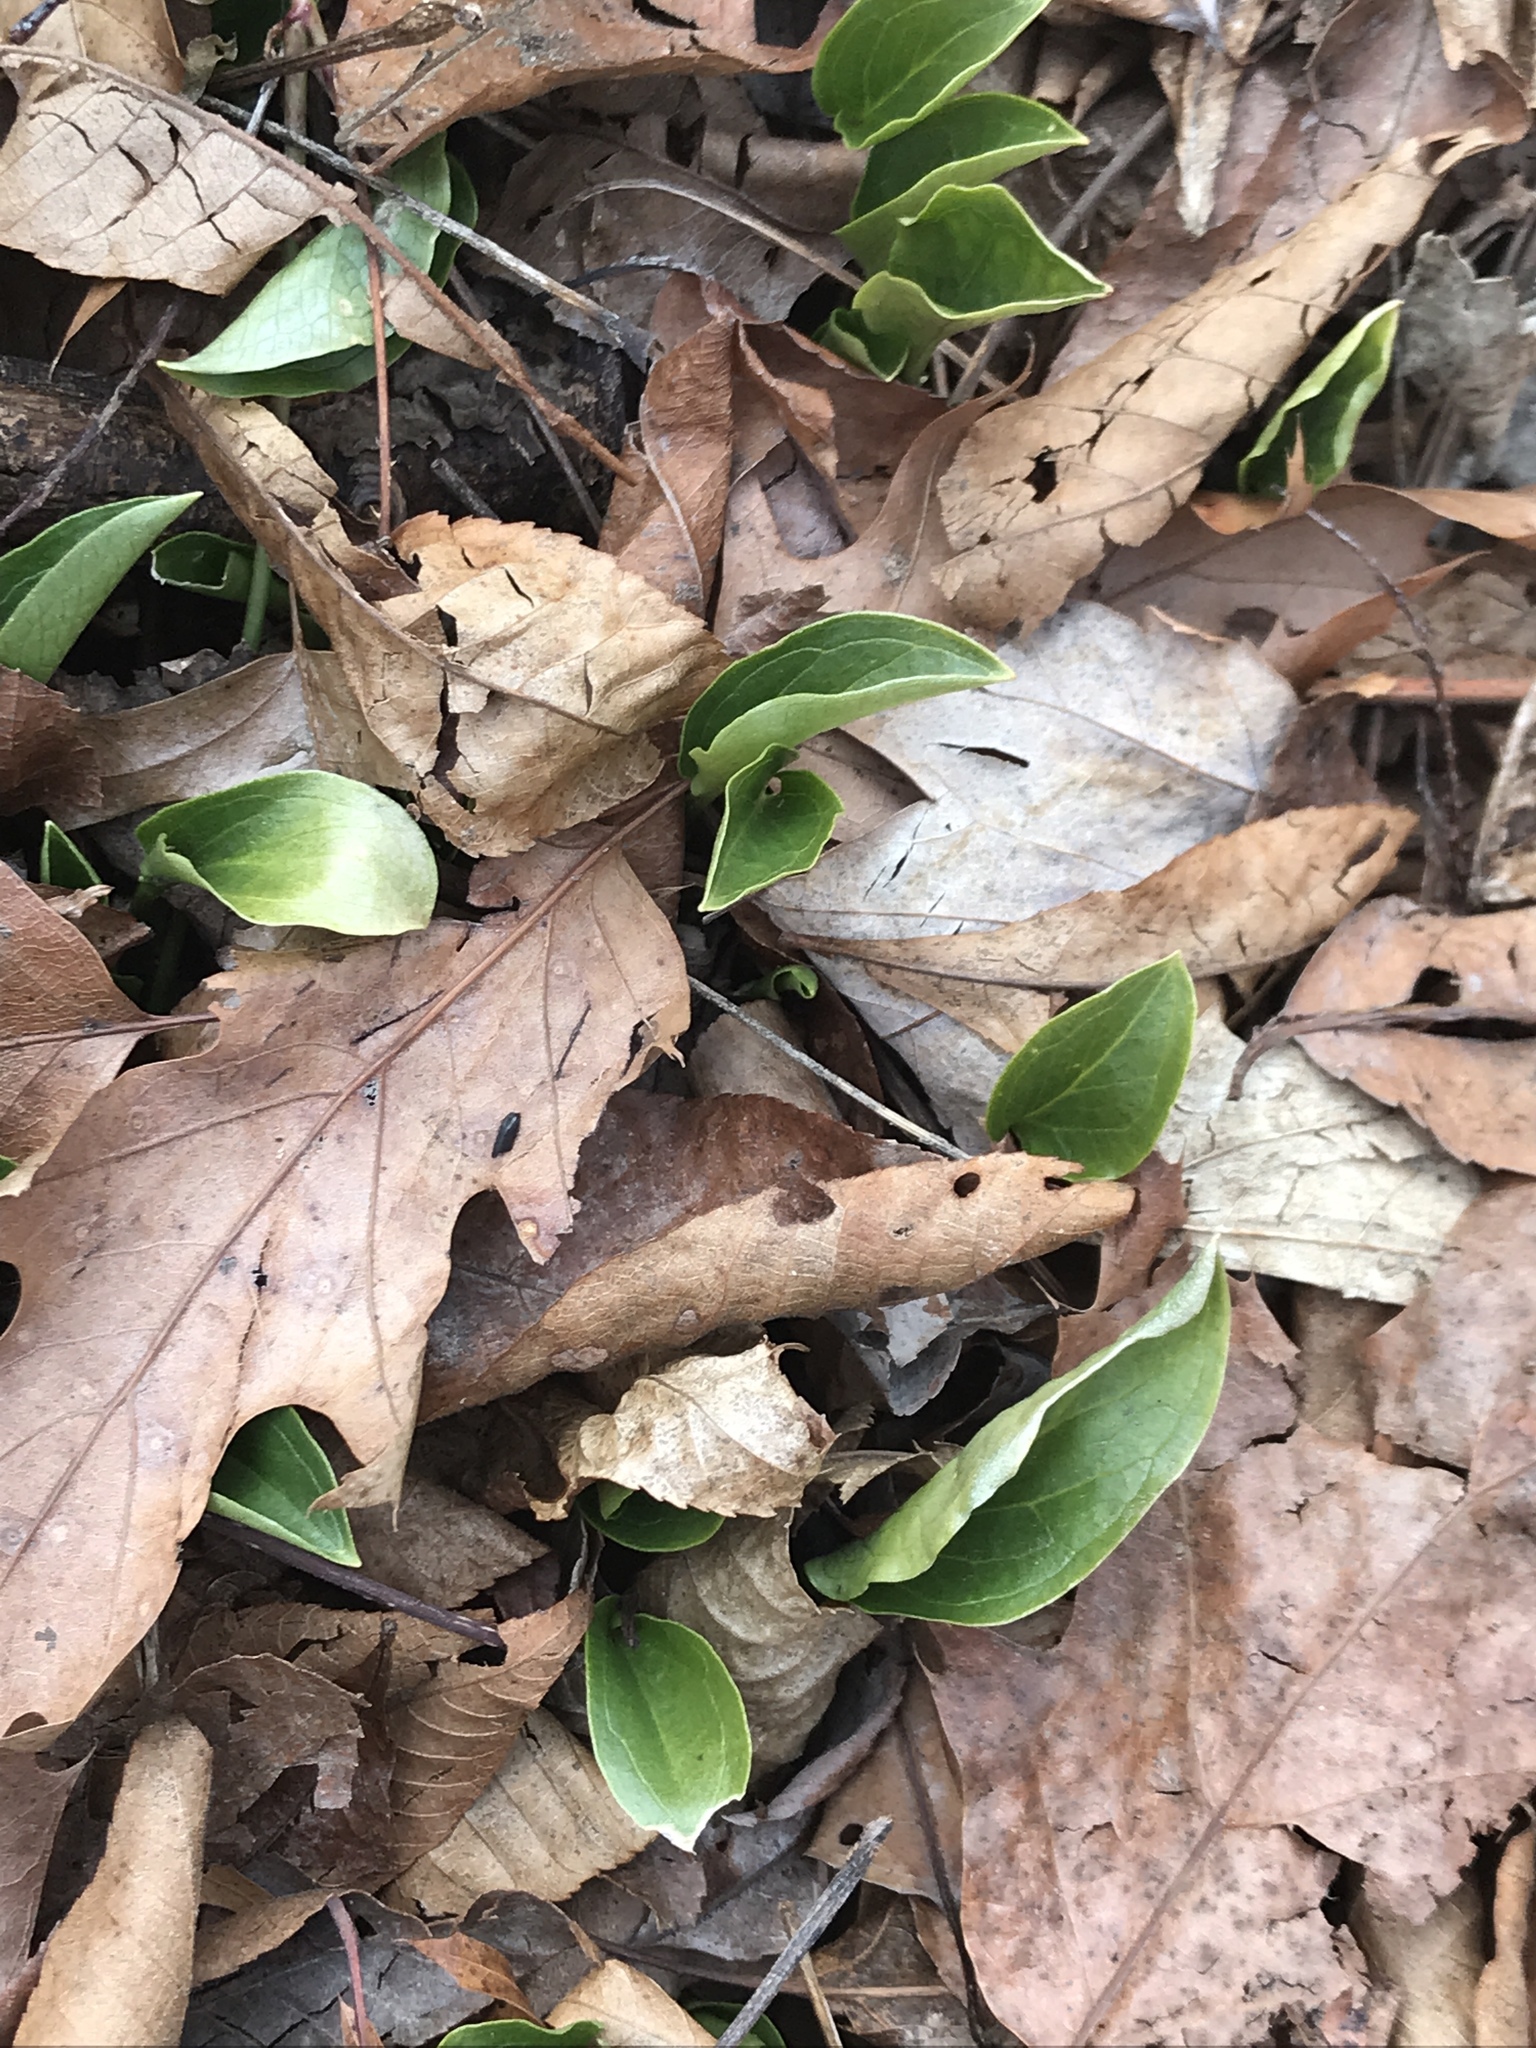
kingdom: Plantae
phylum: Tracheophyta
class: Liliopsida
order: Alismatales
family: Araceae
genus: Arum
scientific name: Arum italicum
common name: Italian lords-and-ladies
